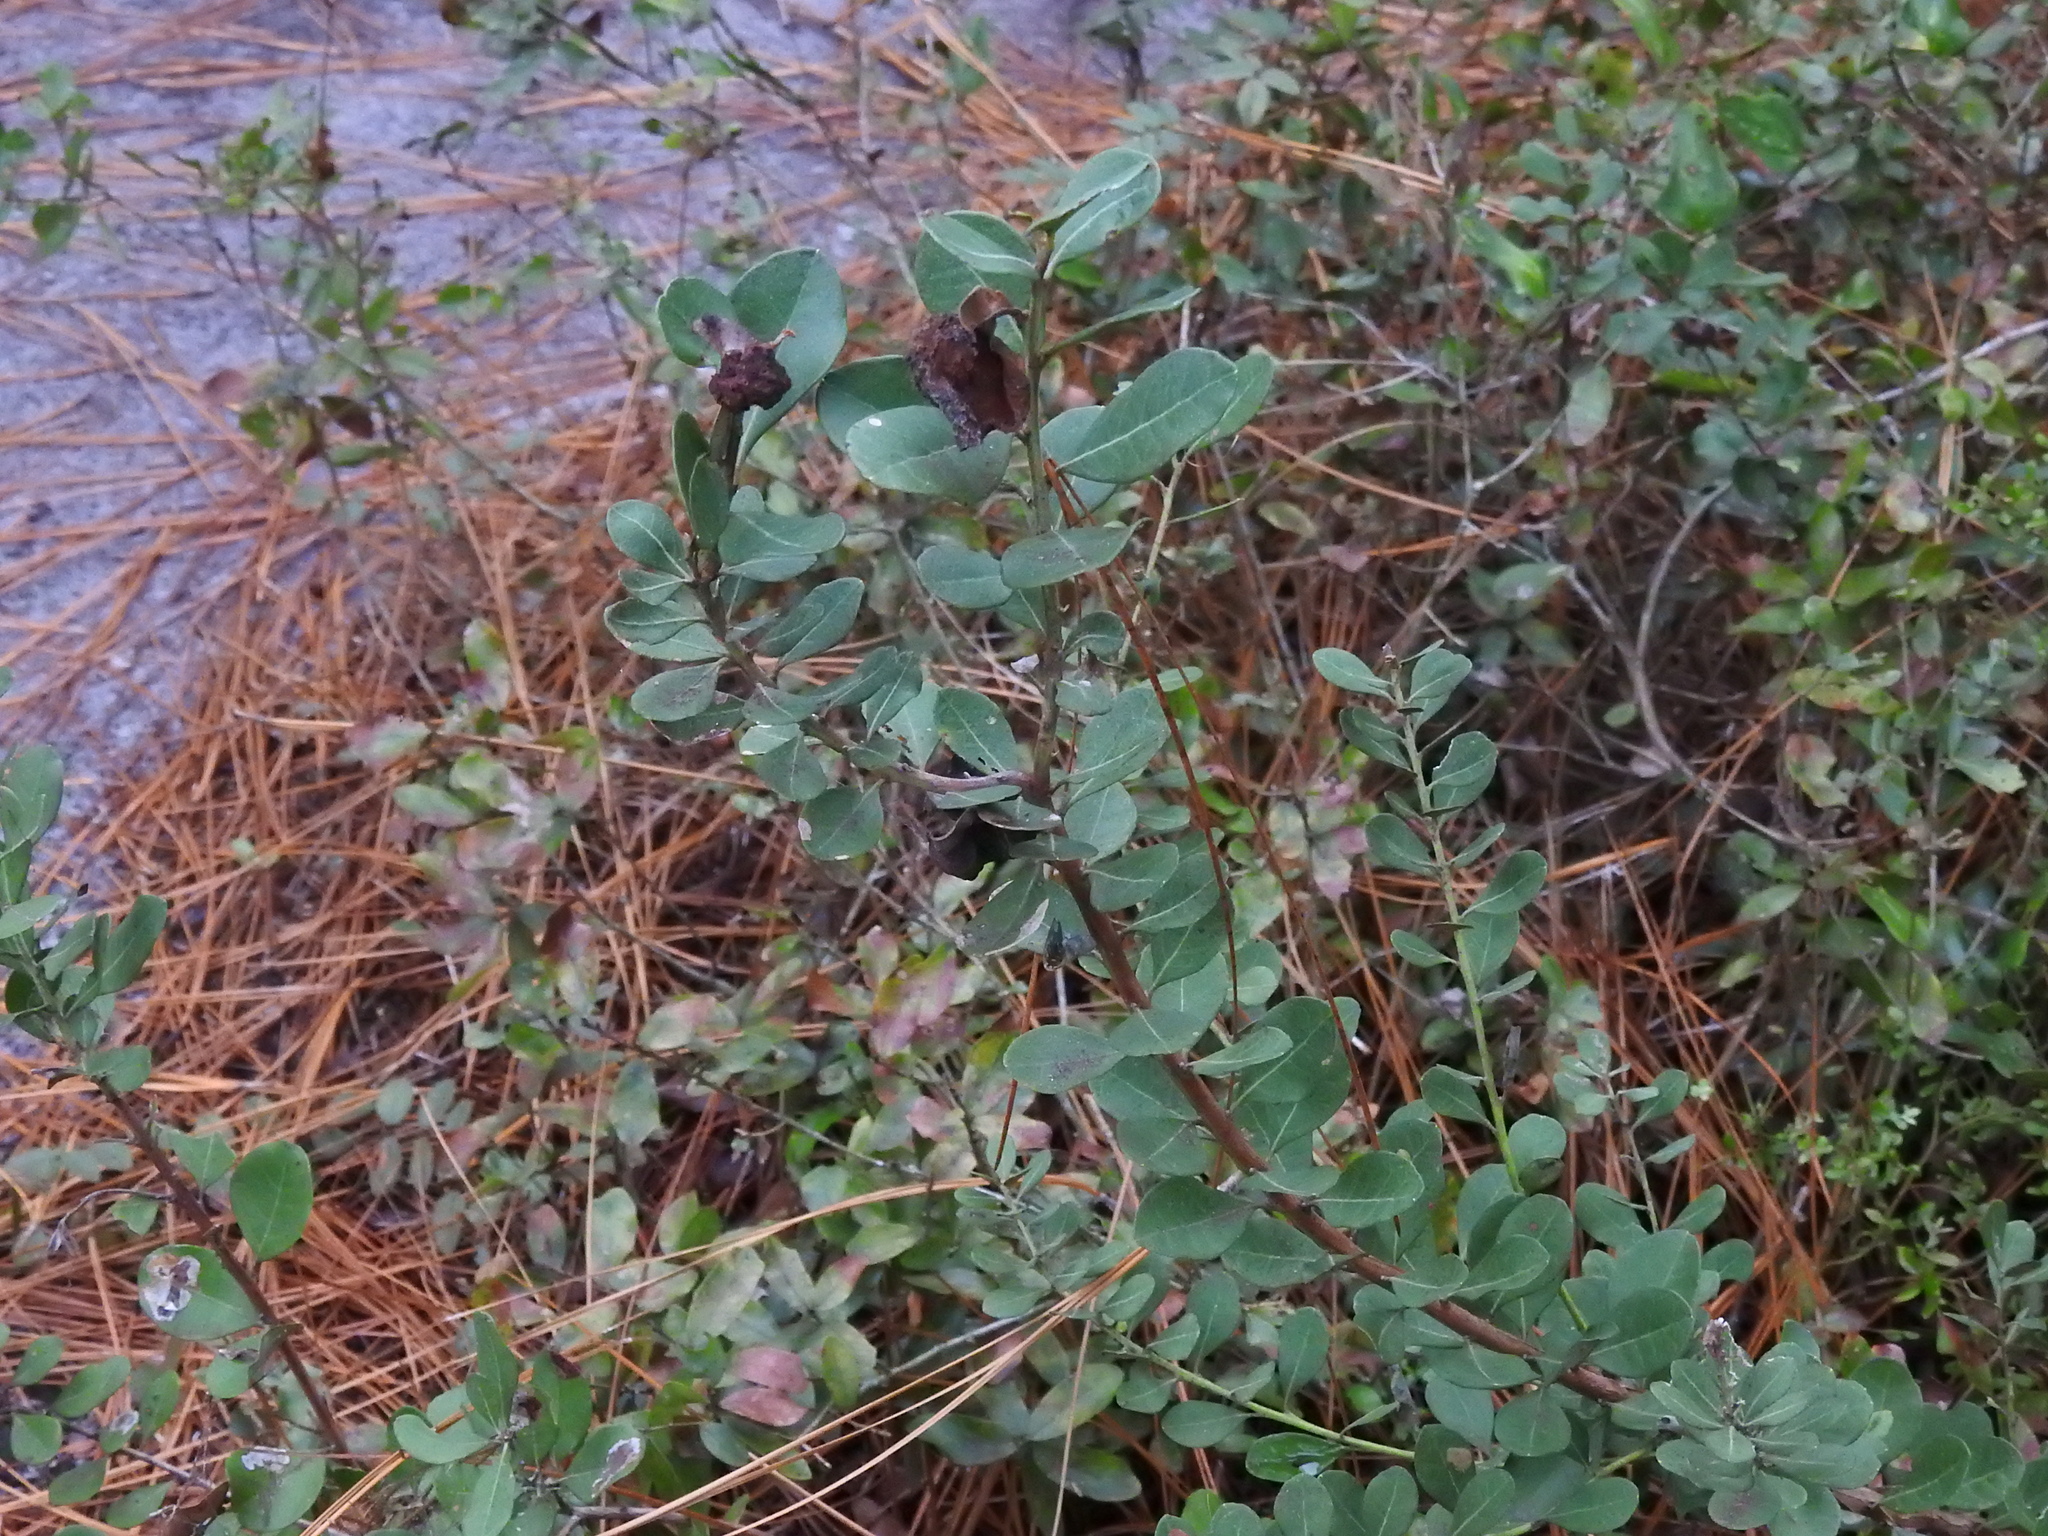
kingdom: Plantae
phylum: Tracheophyta
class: Magnoliopsida
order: Ericales
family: Ericaceae
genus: Lyonia
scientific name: Lyonia fruticosa
